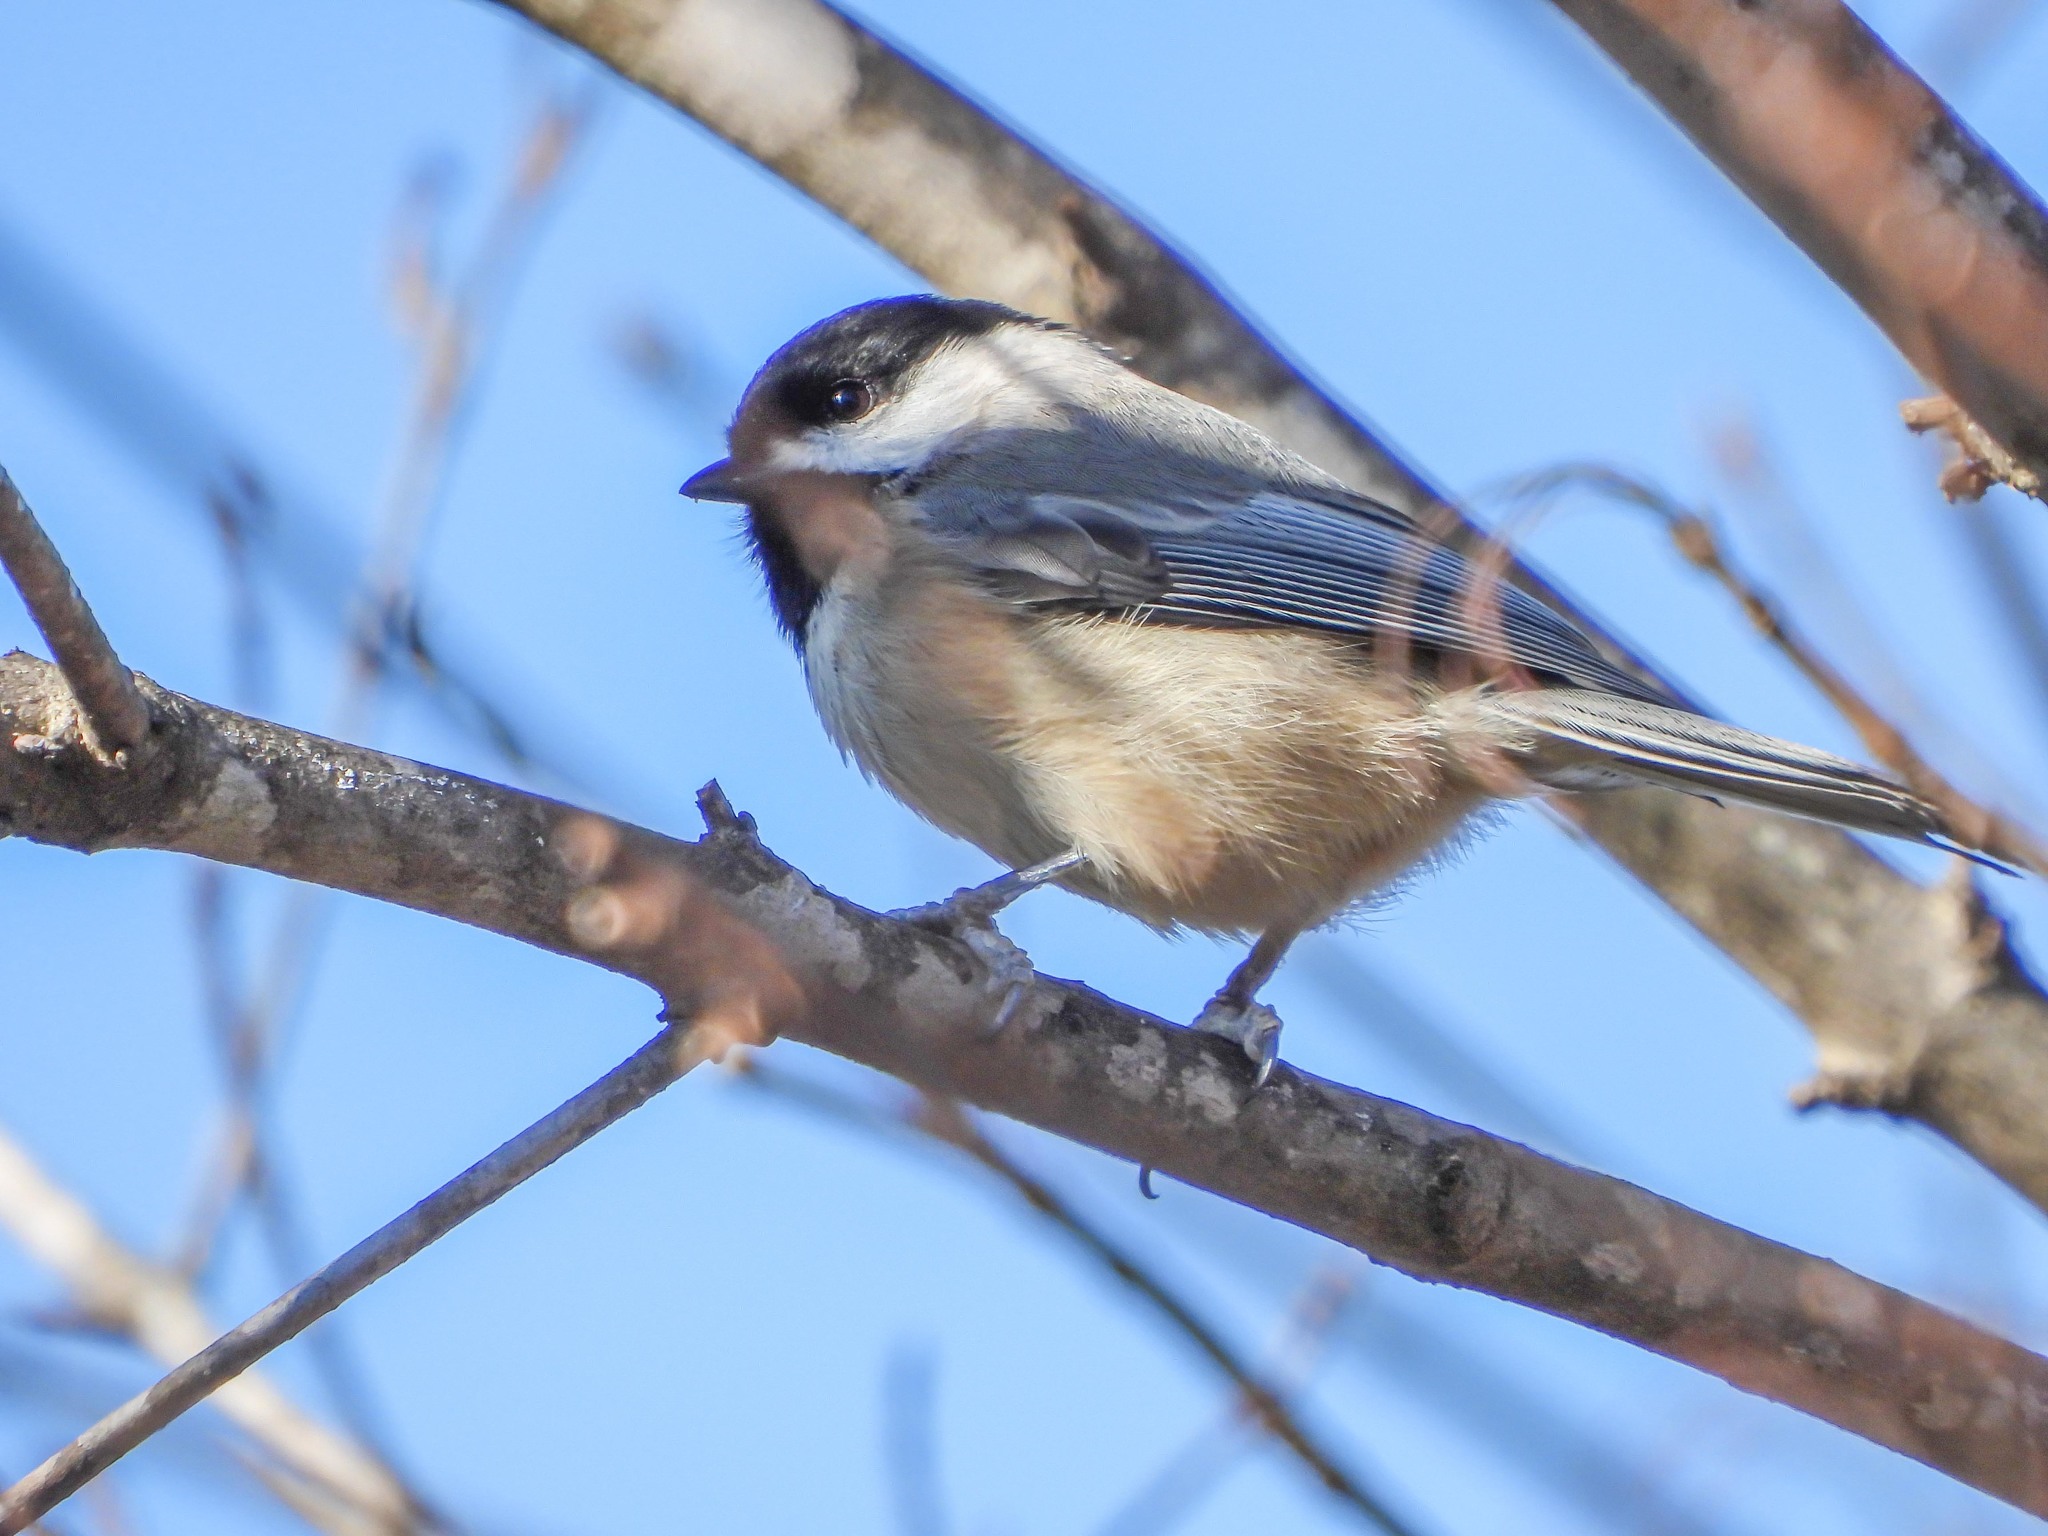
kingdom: Animalia
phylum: Chordata
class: Aves
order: Passeriformes
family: Paridae
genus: Poecile
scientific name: Poecile carolinensis
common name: Carolina chickadee
